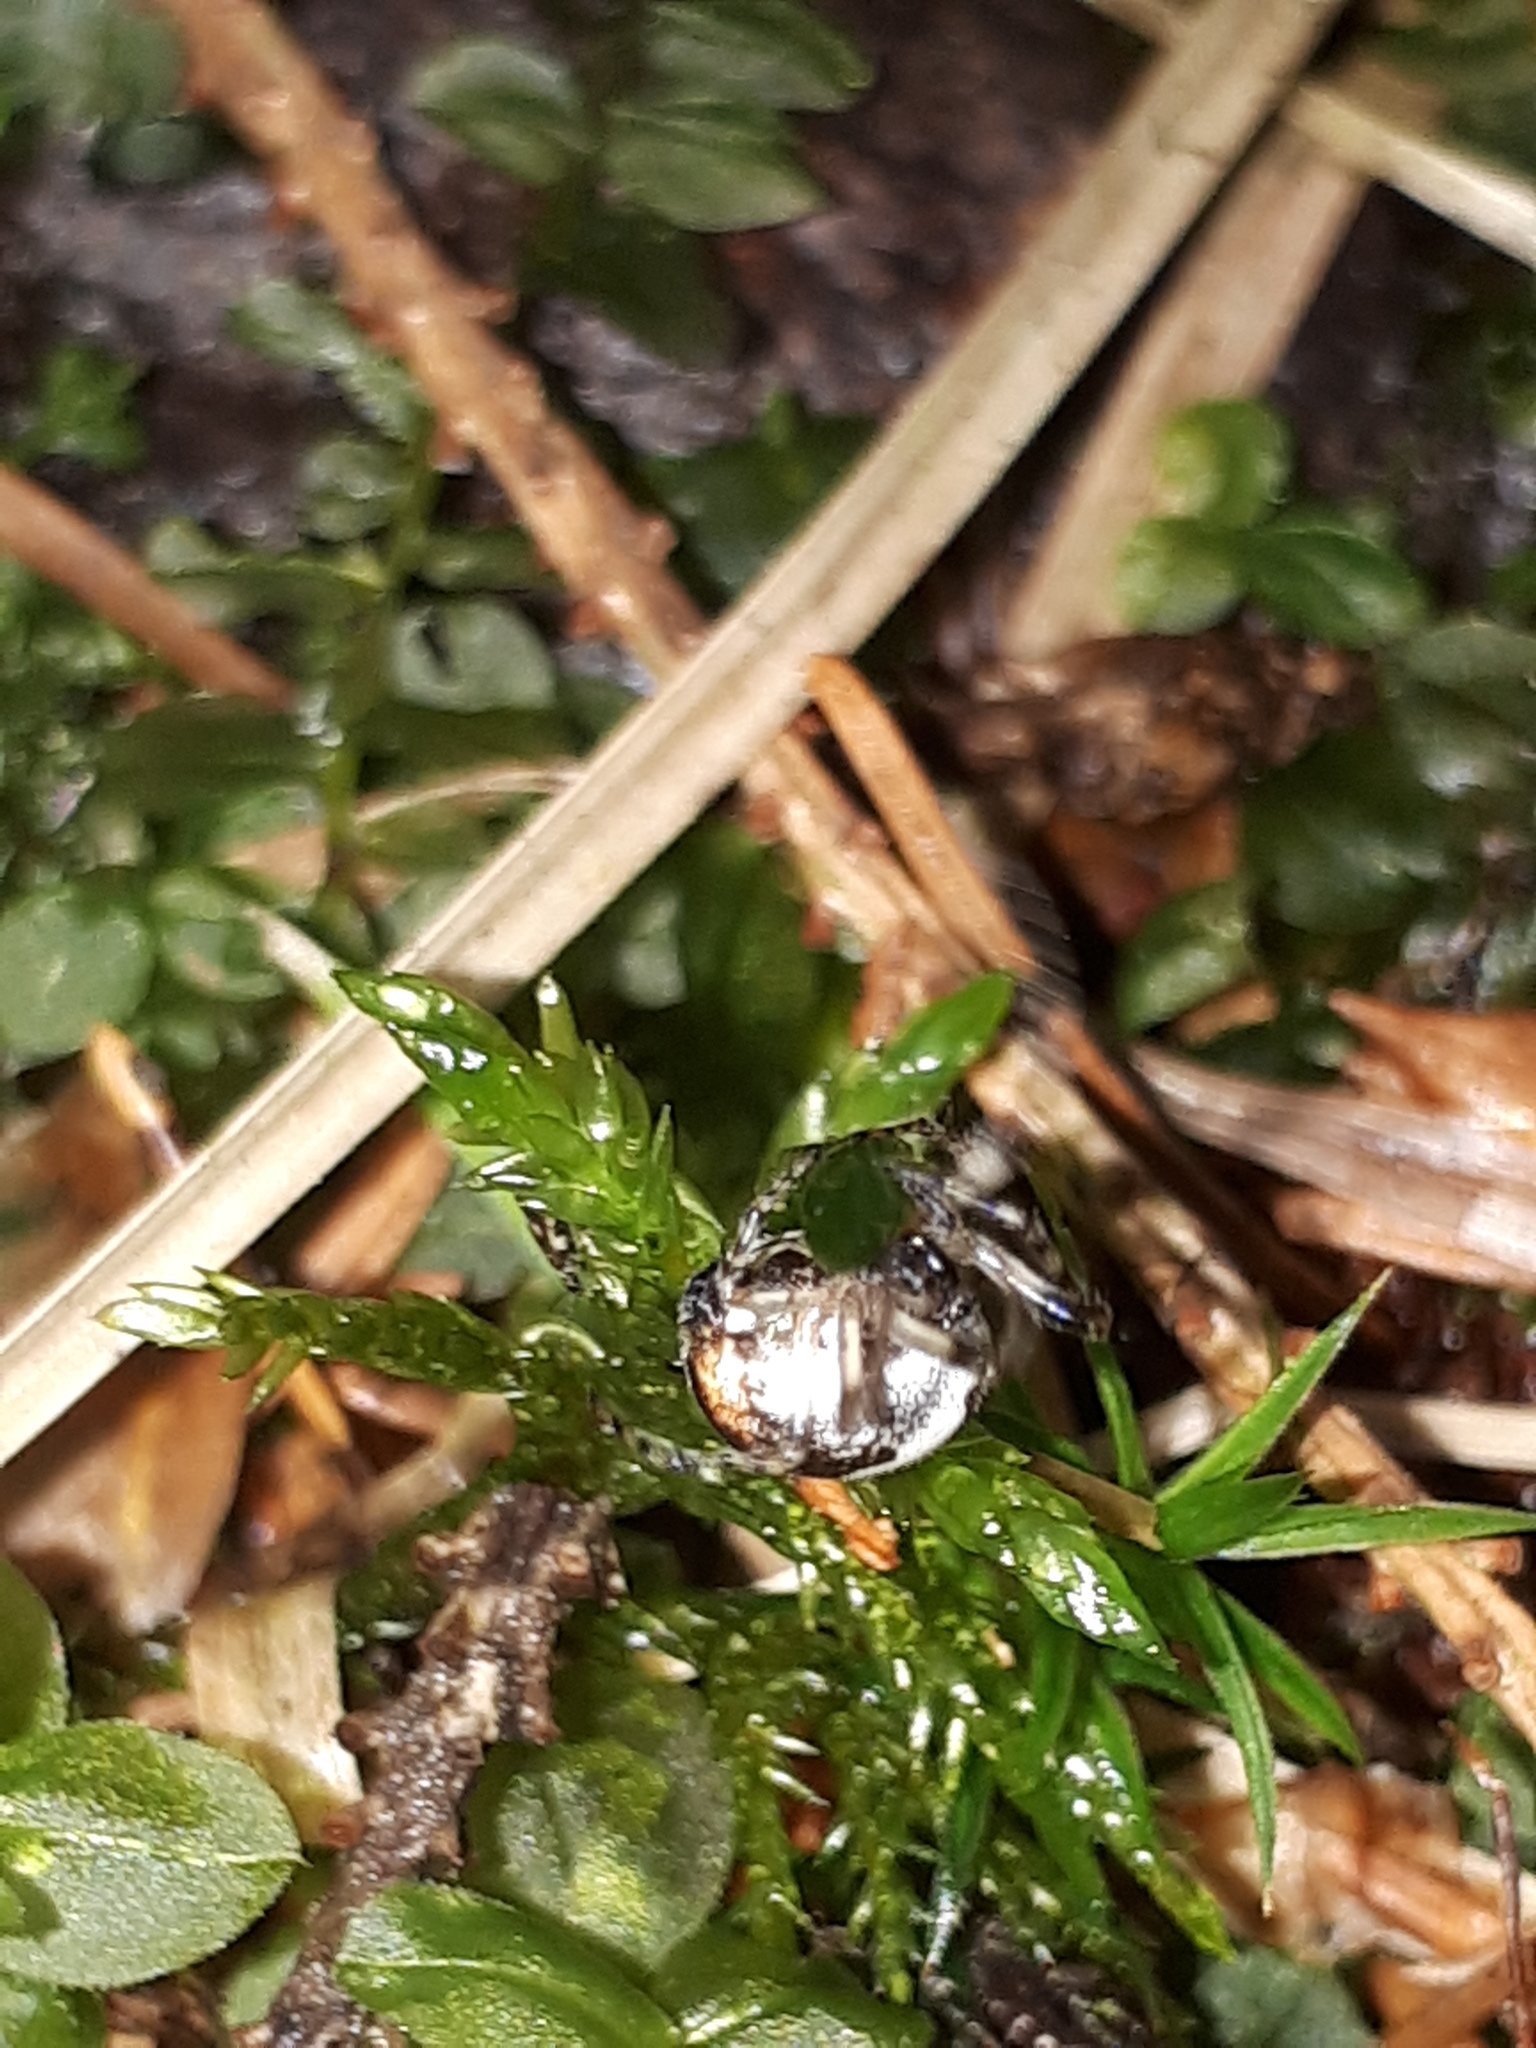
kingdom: Animalia
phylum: Arthropoda
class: Arachnida
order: Araneae
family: Araneidae
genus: Cyclosa
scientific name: Cyclosa conica
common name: Conical trashline orbweaver
